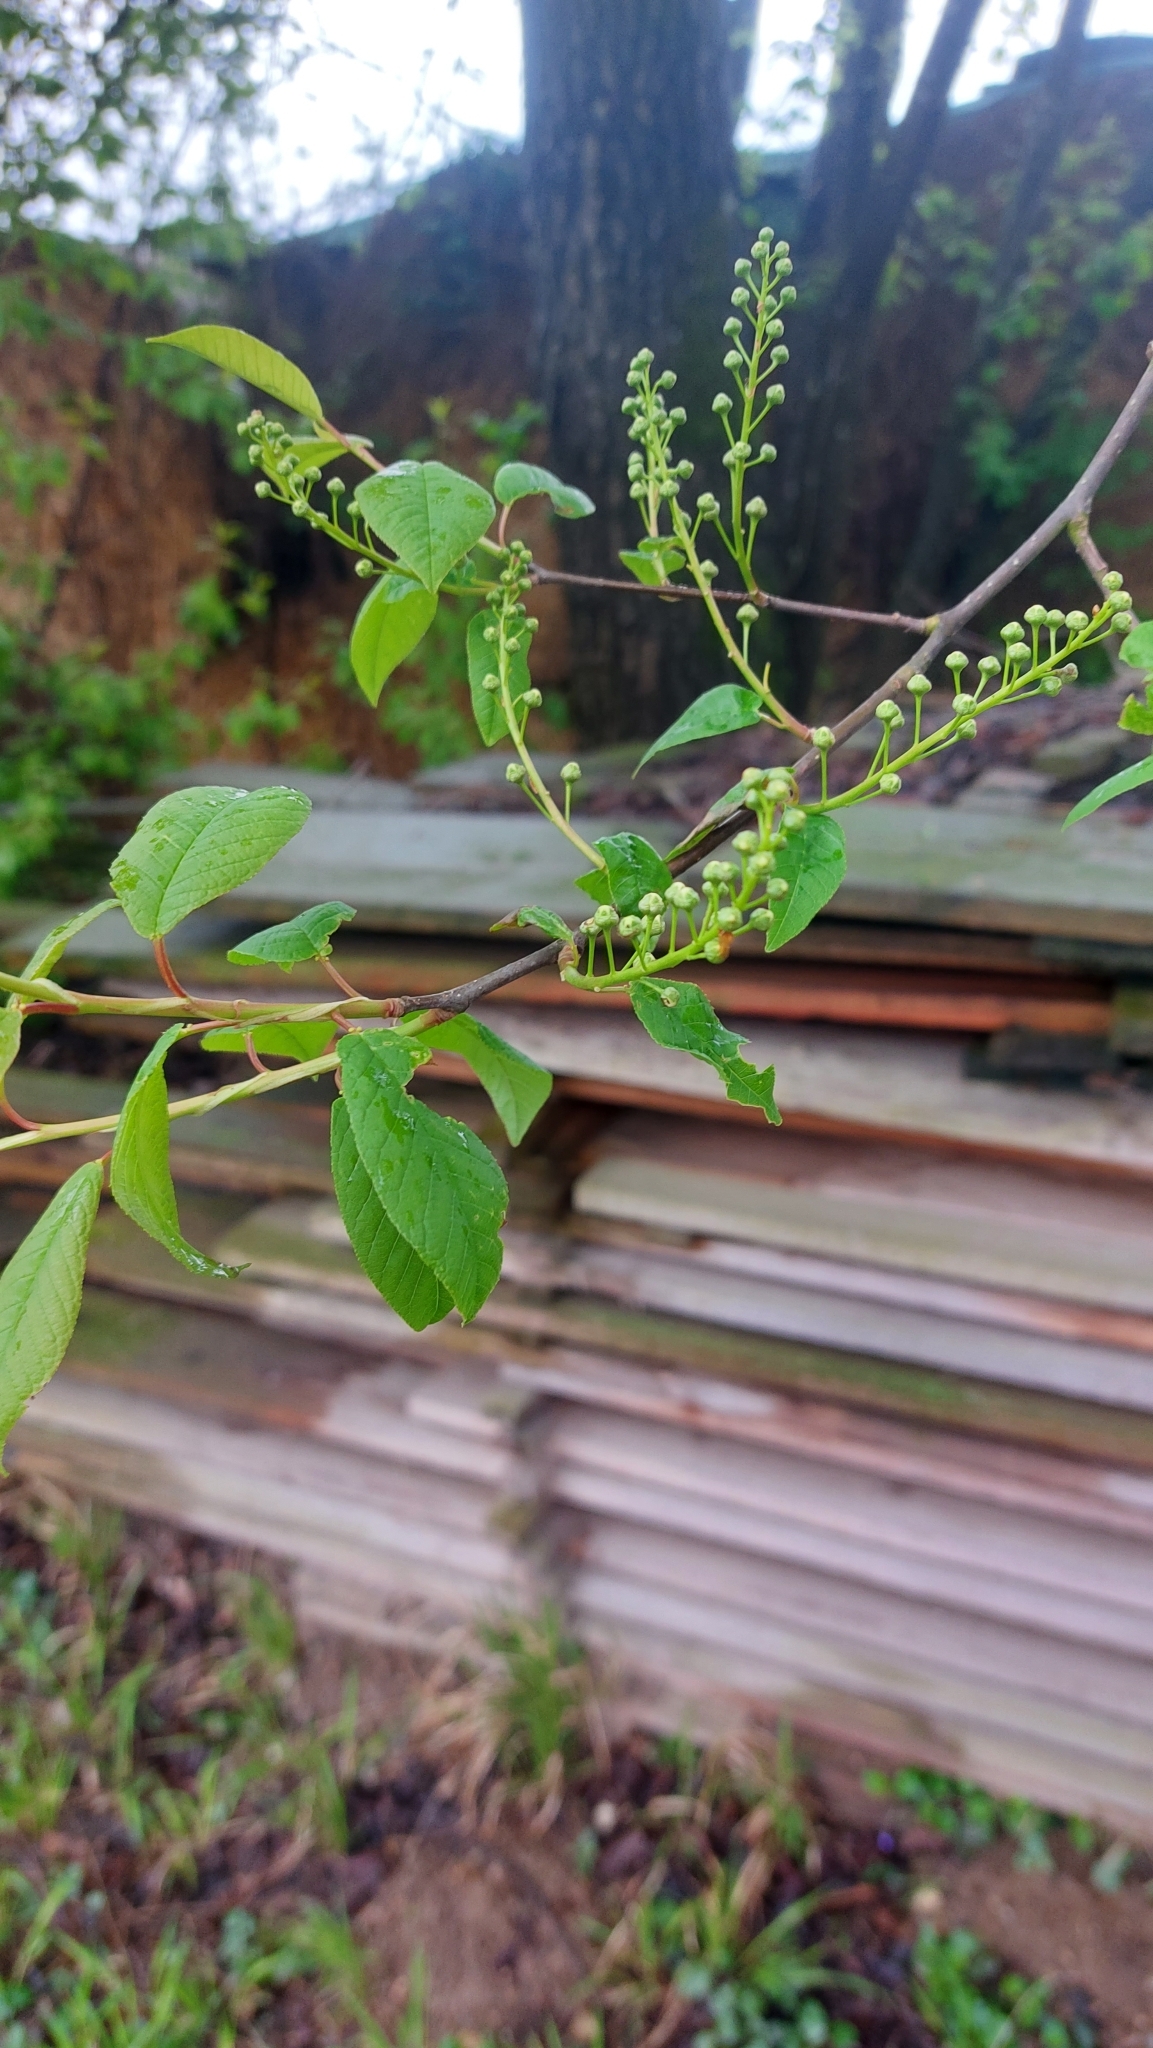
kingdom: Plantae
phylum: Tracheophyta
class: Magnoliopsida
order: Rosales
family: Rosaceae
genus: Prunus
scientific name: Prunus padus
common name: Bird cherry
